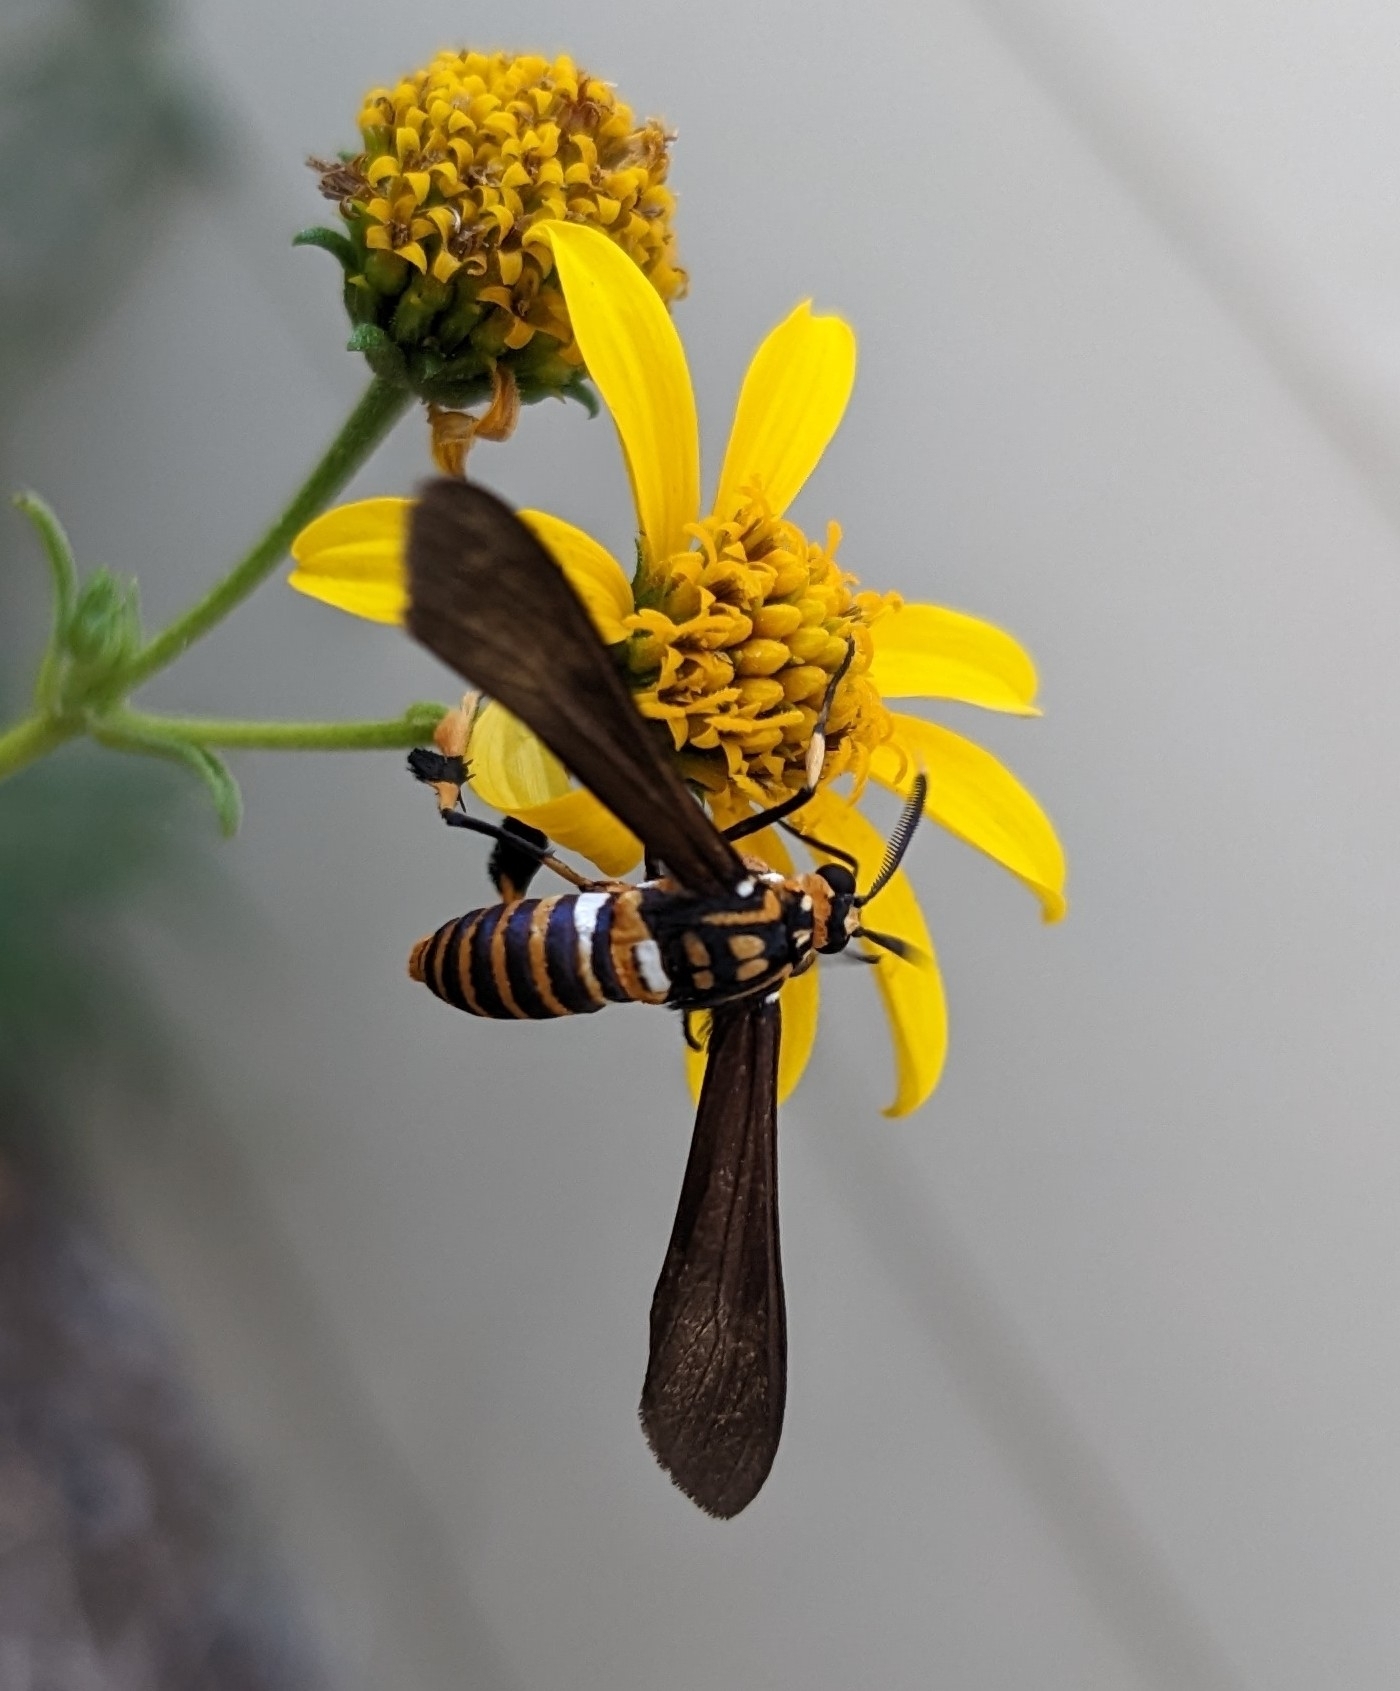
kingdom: Animalia
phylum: Arthropoda
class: Insecta
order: Lepidoptera
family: Erebidae
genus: Horama
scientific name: Horama panthalon
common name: Texas wasp moth
